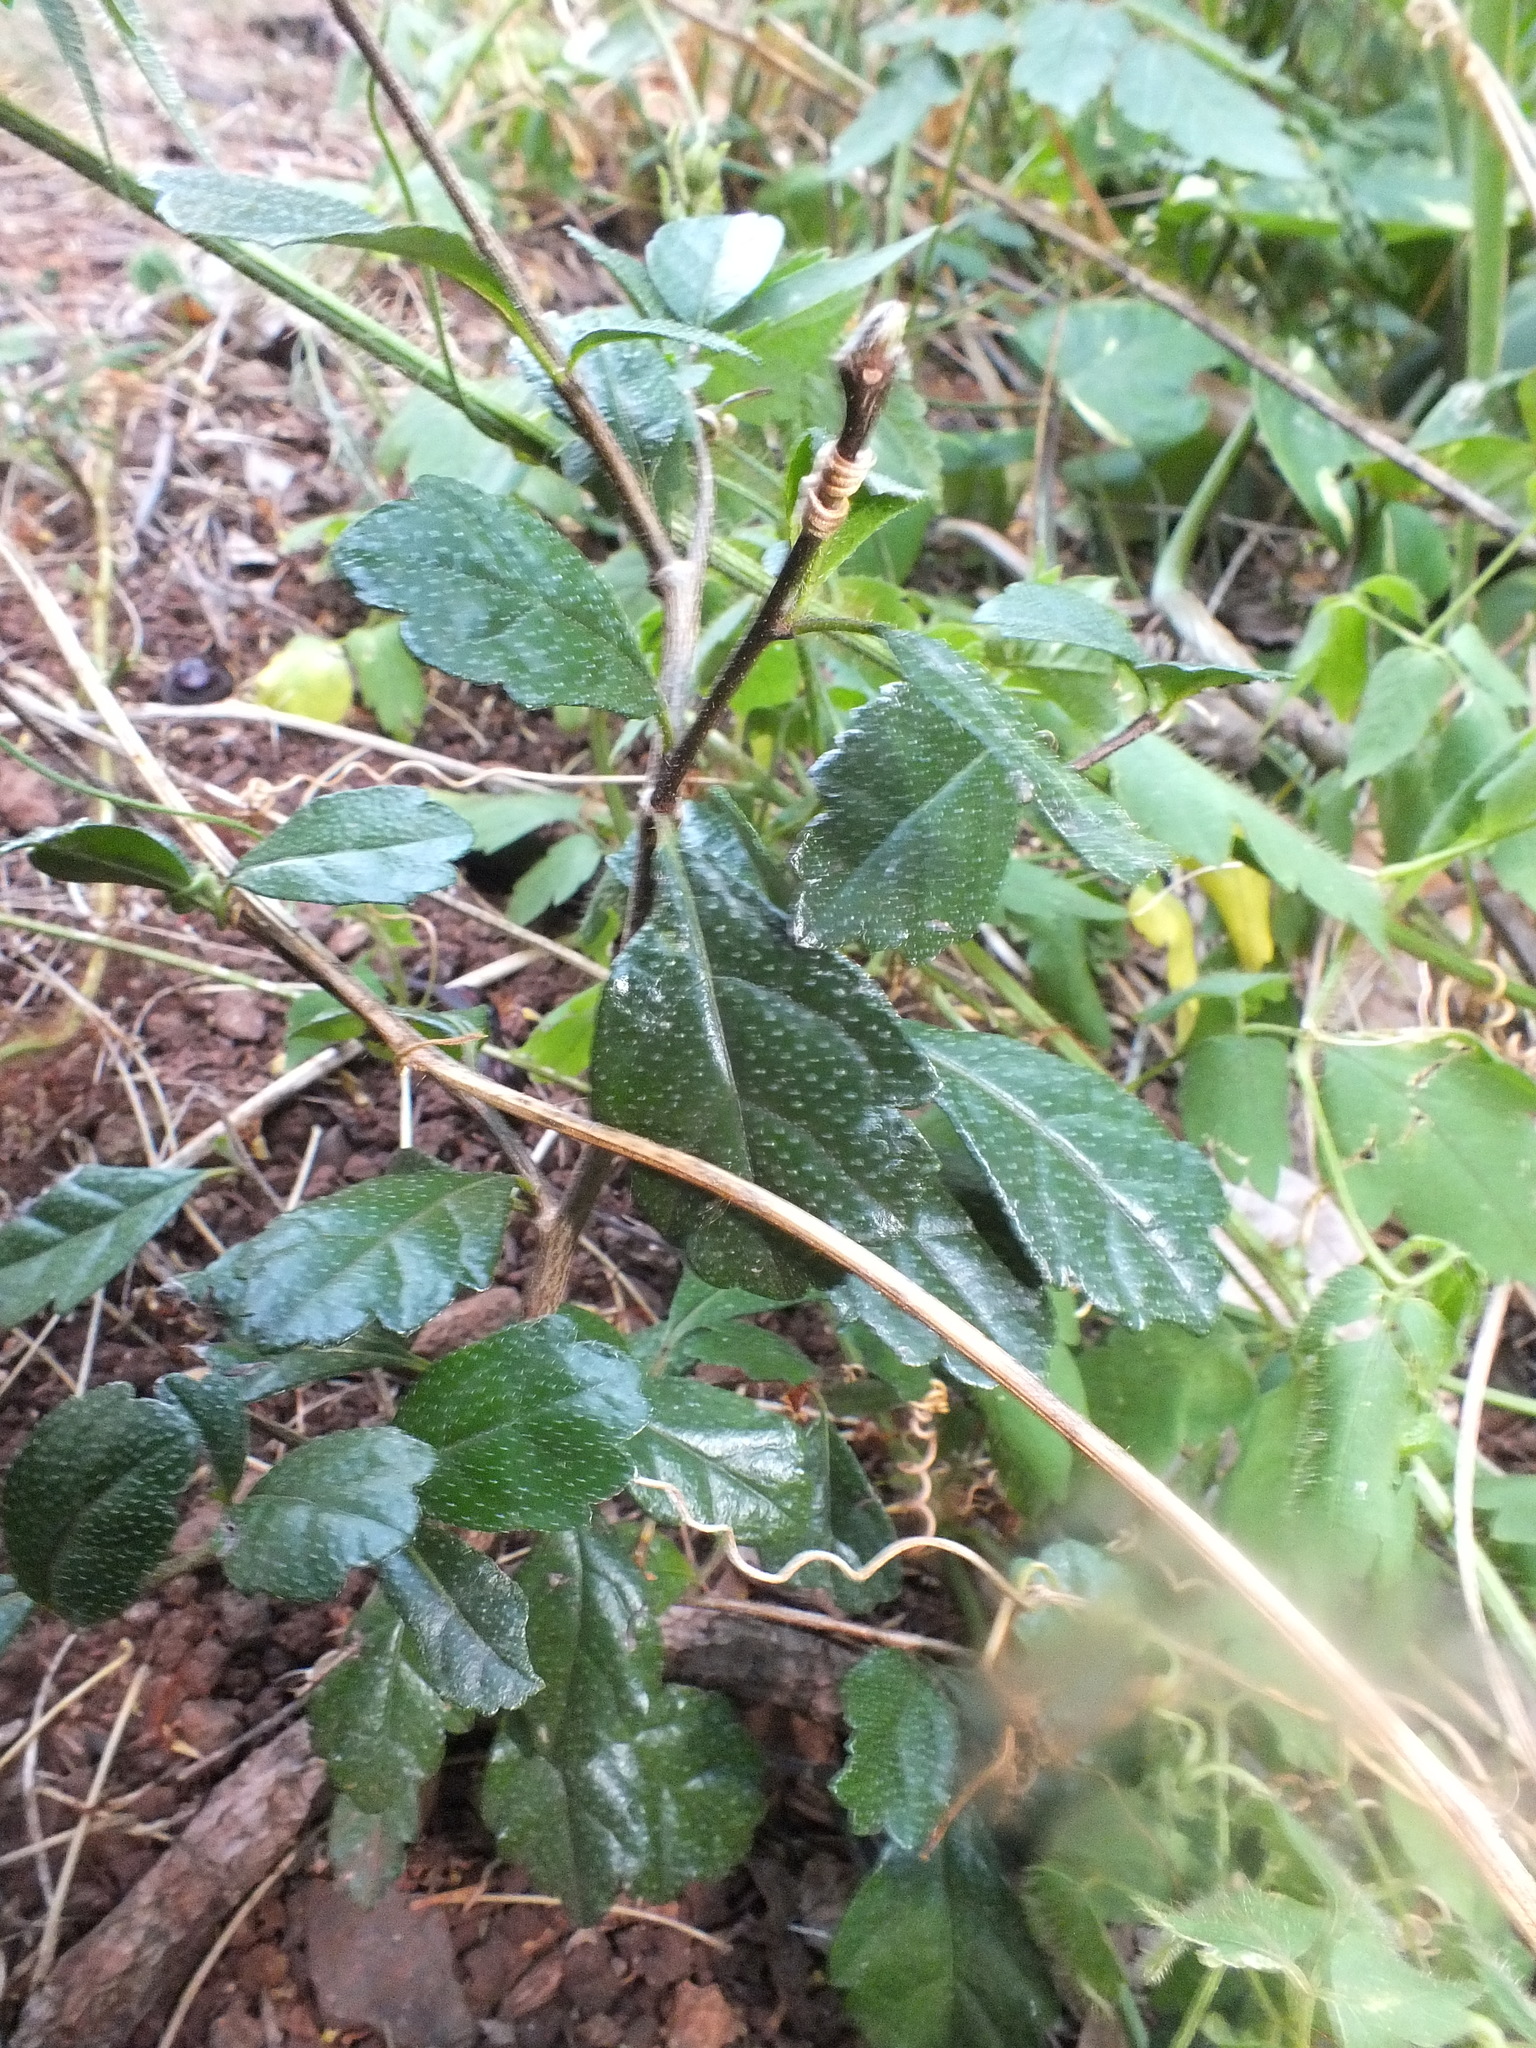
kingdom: Plantae
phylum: Tracheophyta
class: Magnoliopsida
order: Boraginales
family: Ehretiaceae
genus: Ehretia
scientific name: Ehretia microphylla
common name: Fukien-tea
